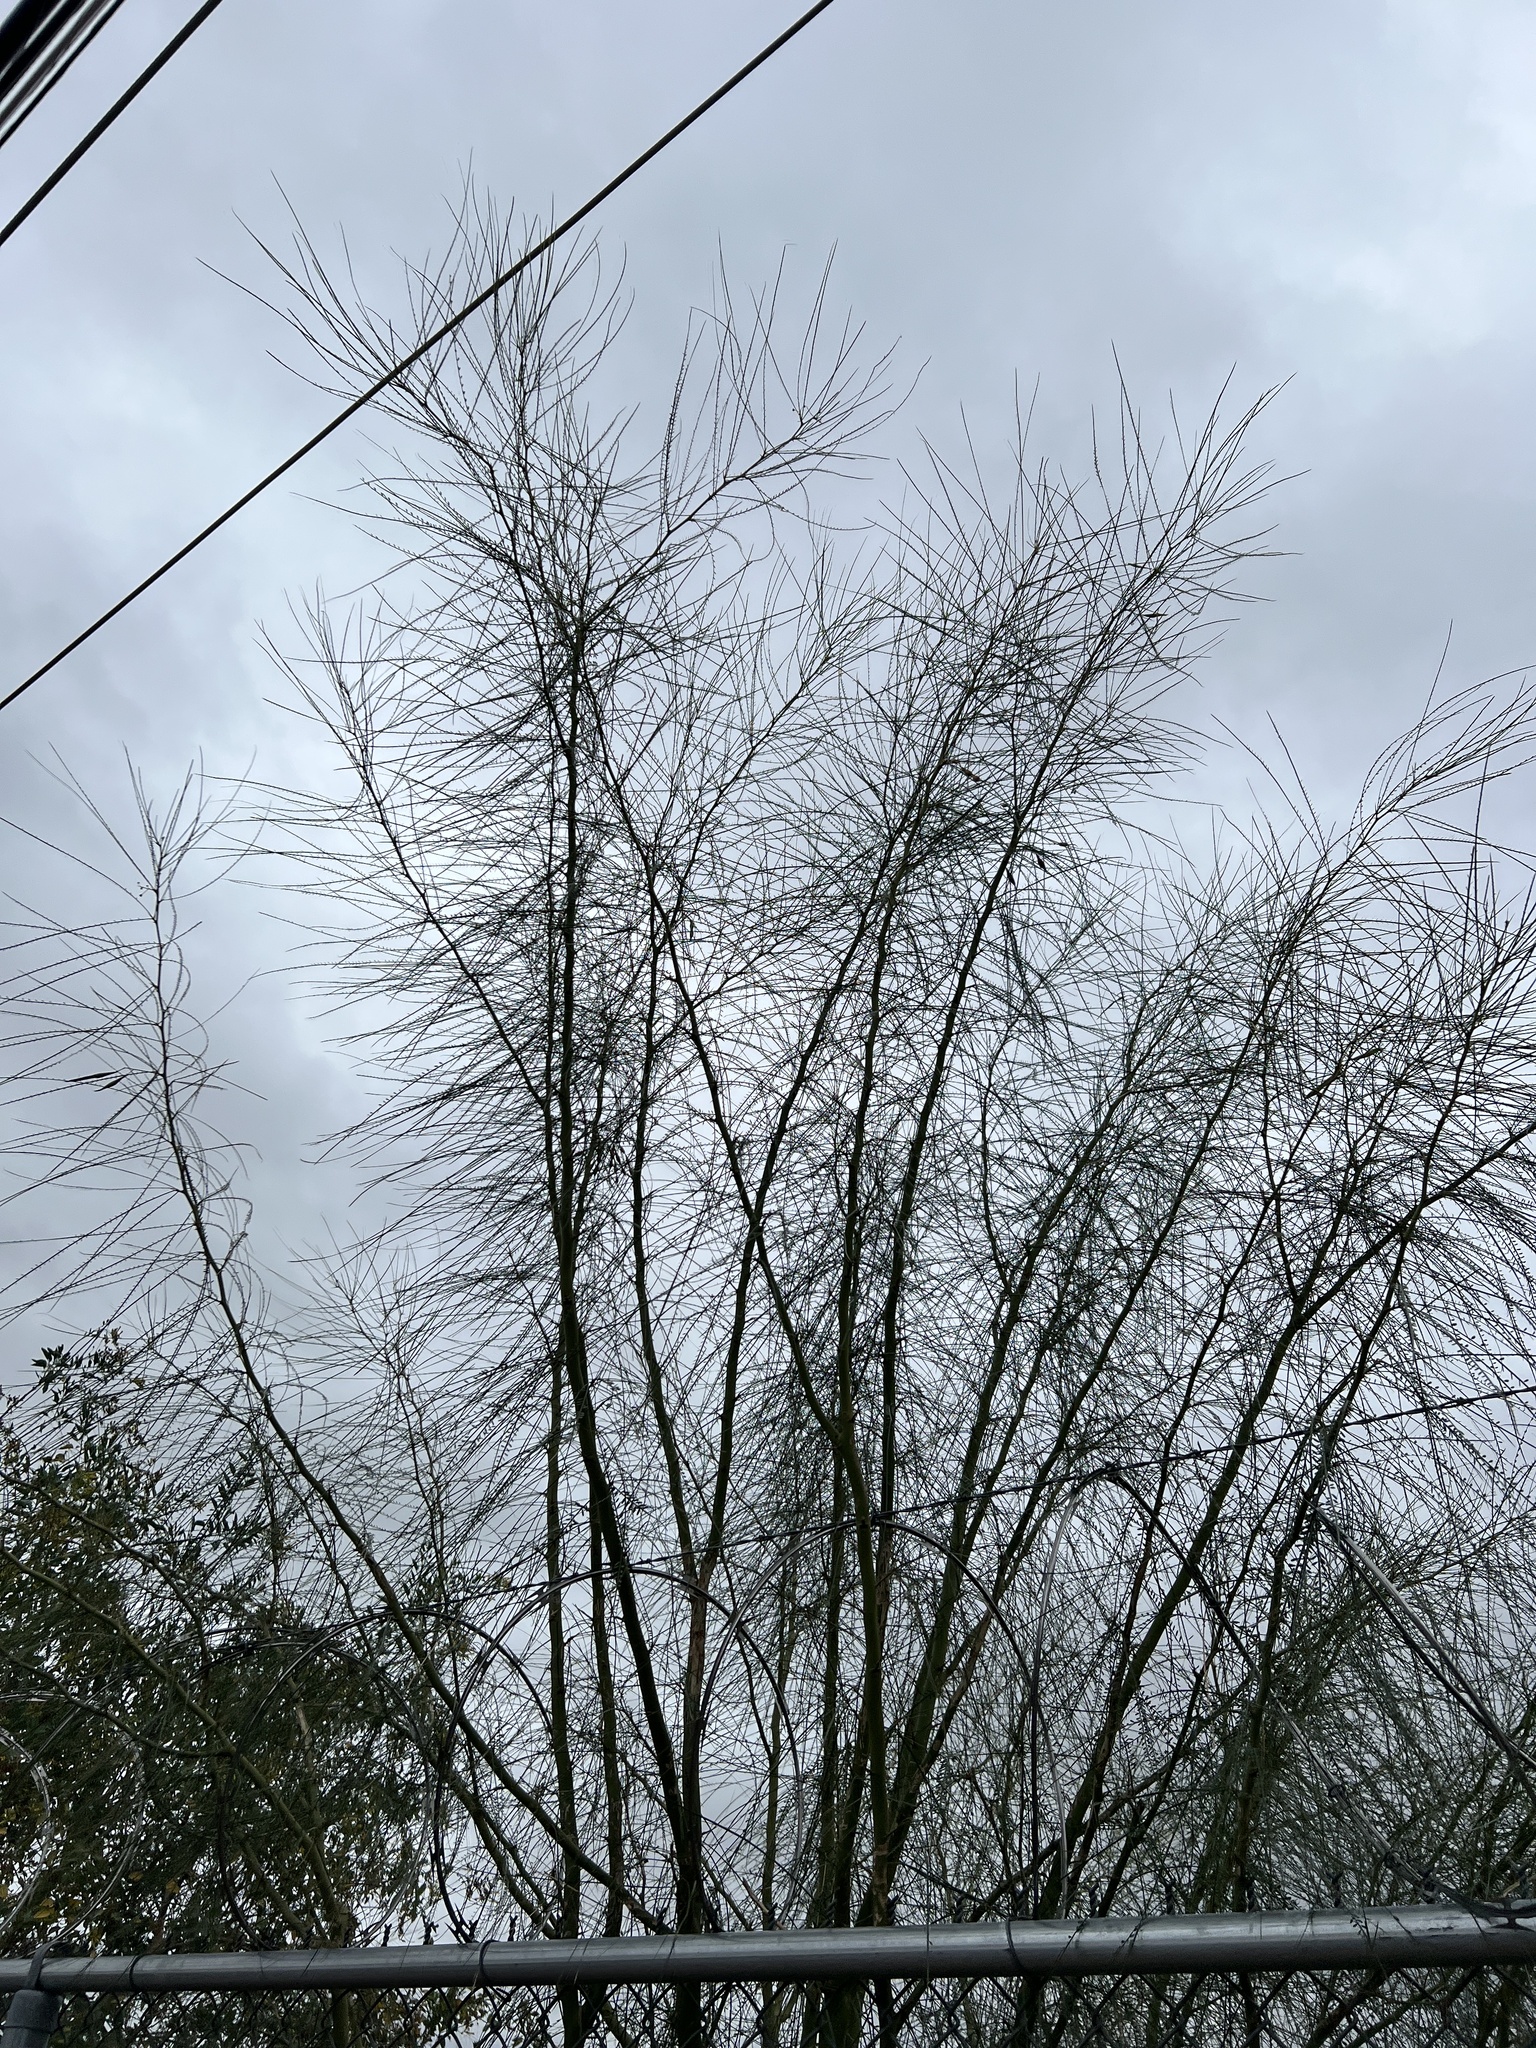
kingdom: Plantae
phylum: Tracheophyta
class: Magnoliopsida
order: Fabales
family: Fabaceae
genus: Parkinsonia
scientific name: Parkinsonia aculeata
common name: Jerusalem thorn
